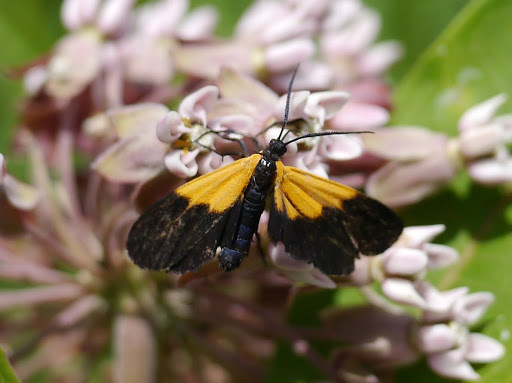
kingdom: Animalia
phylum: Arthropoda
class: Insecta
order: Lepidoptera
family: Erebidae
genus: Lycomorpha
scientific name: Lycomorpha pholus
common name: Black-and-yellow lichen moth
